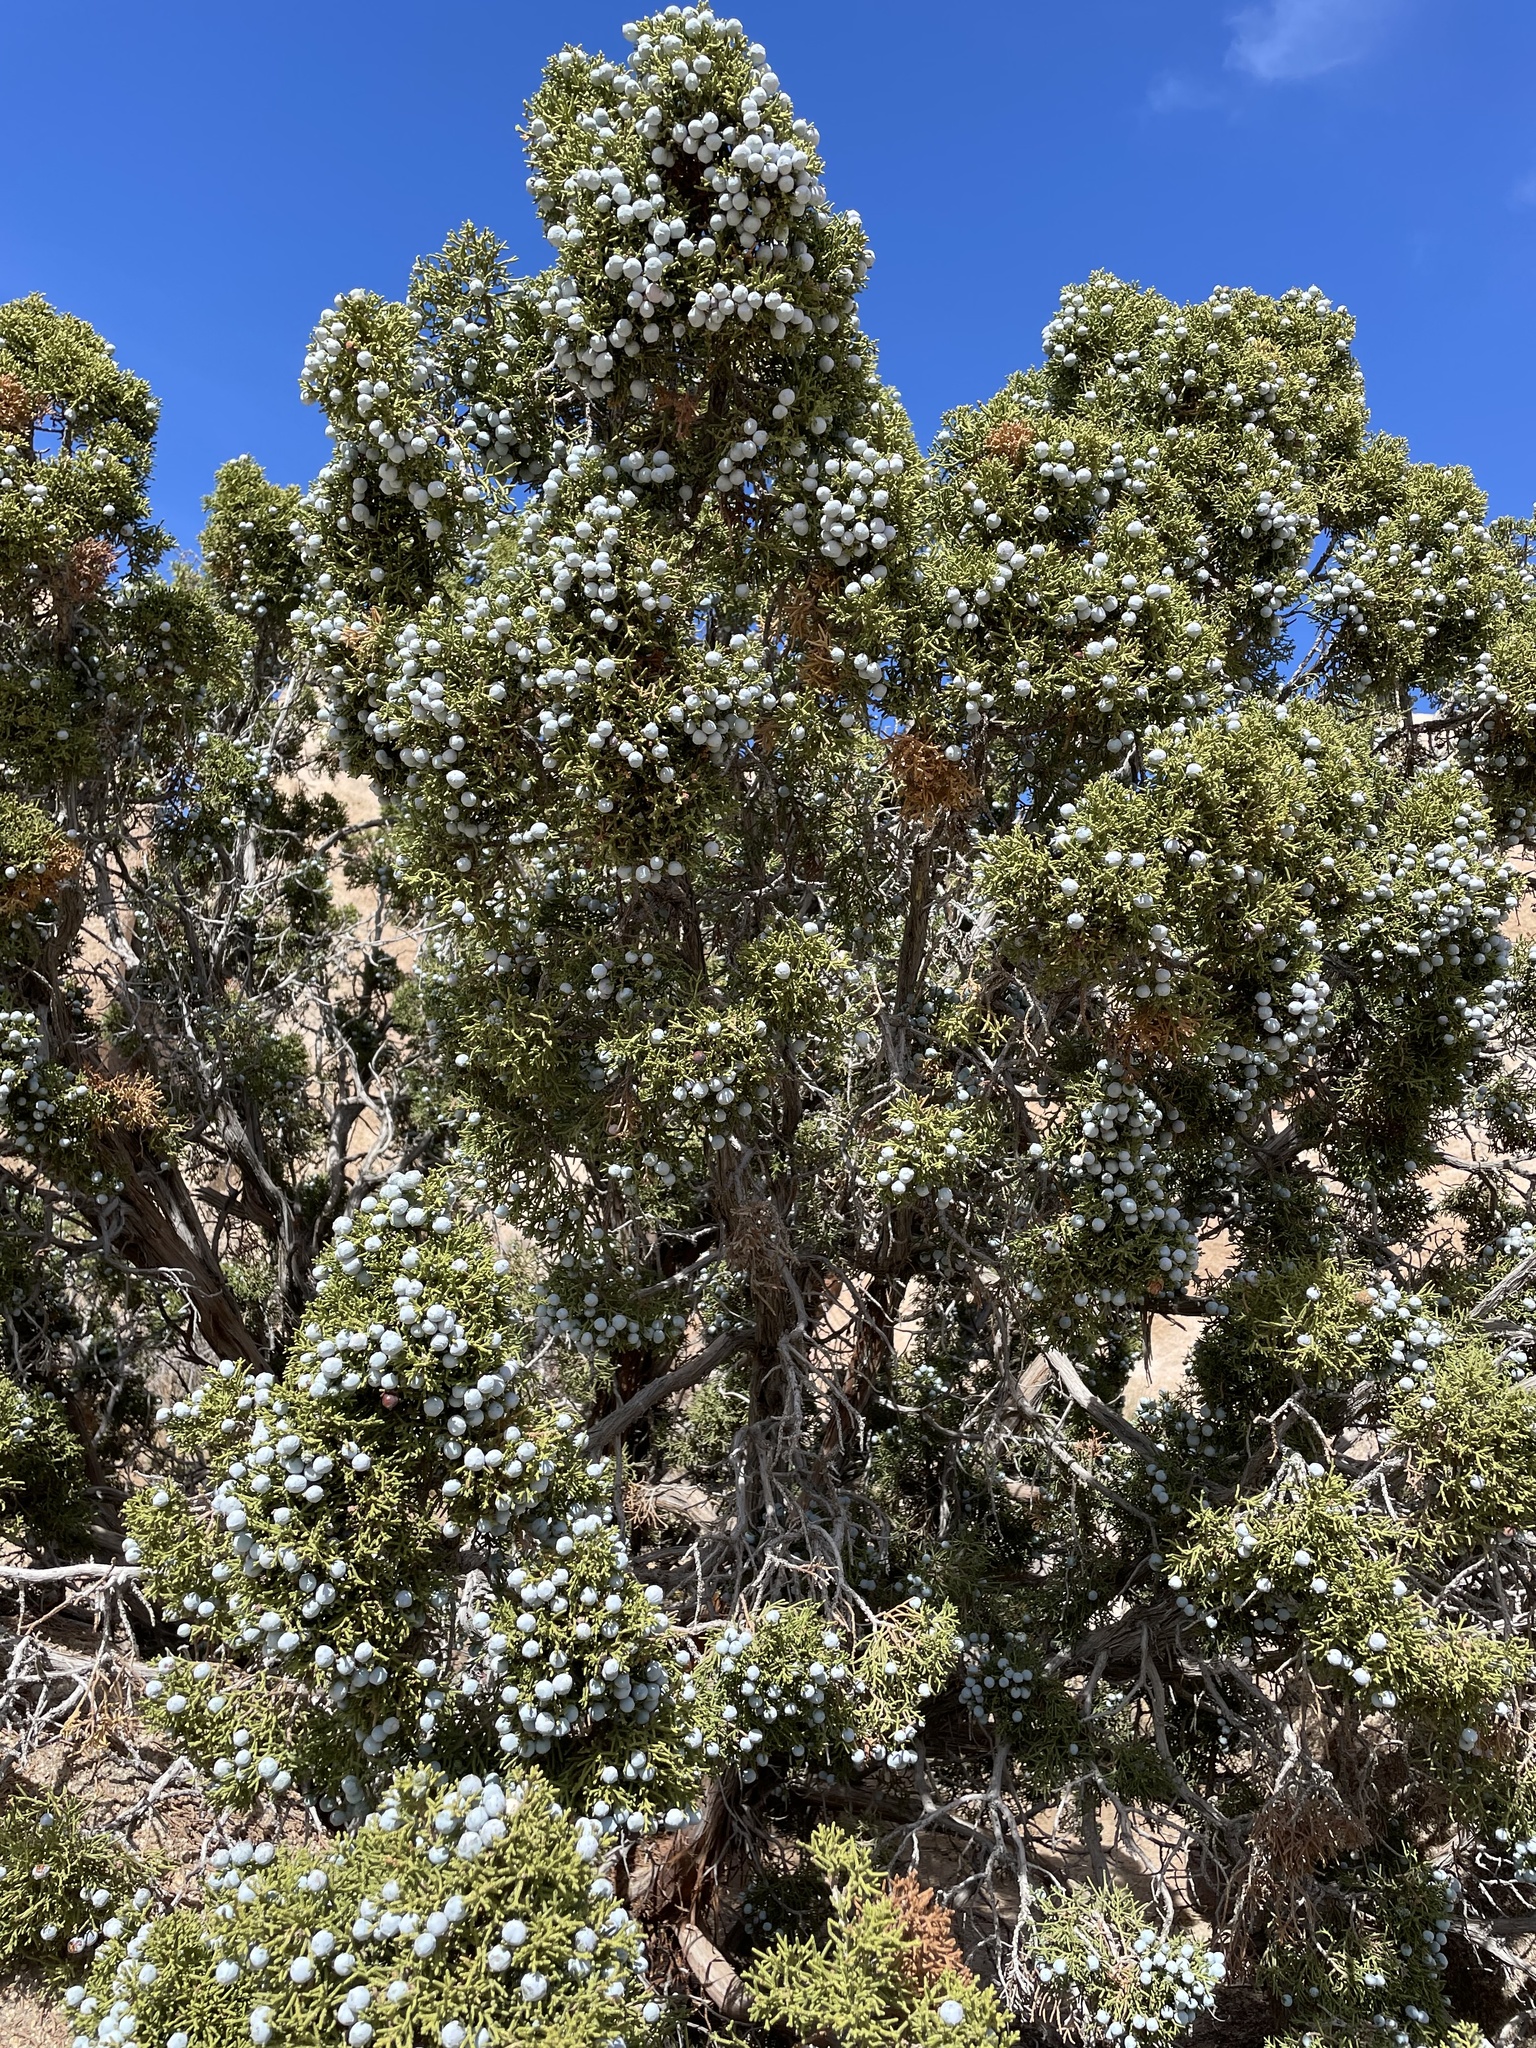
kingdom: Plantae
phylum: Tracheophyta
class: Pinopsida
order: Pinales
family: Cupressaceae
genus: Juniperus
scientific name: Juniperus californica
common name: California juniper
